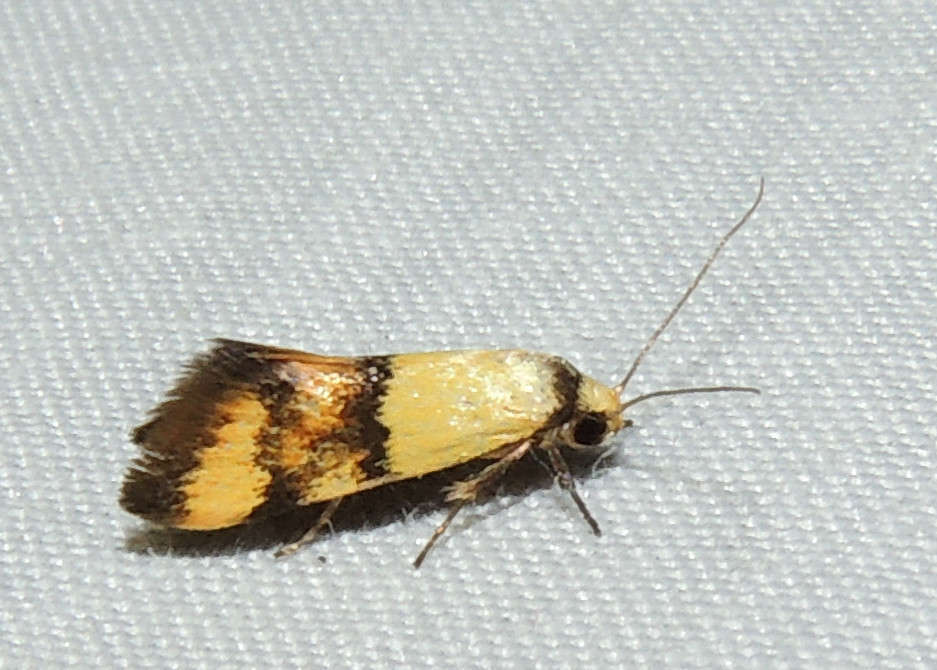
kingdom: Animalia
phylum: Arthropoda
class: Insecta
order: Lepidoptera
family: Oecophoridae
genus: Temnogyropa
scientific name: Temnogyropa stenomorpha
